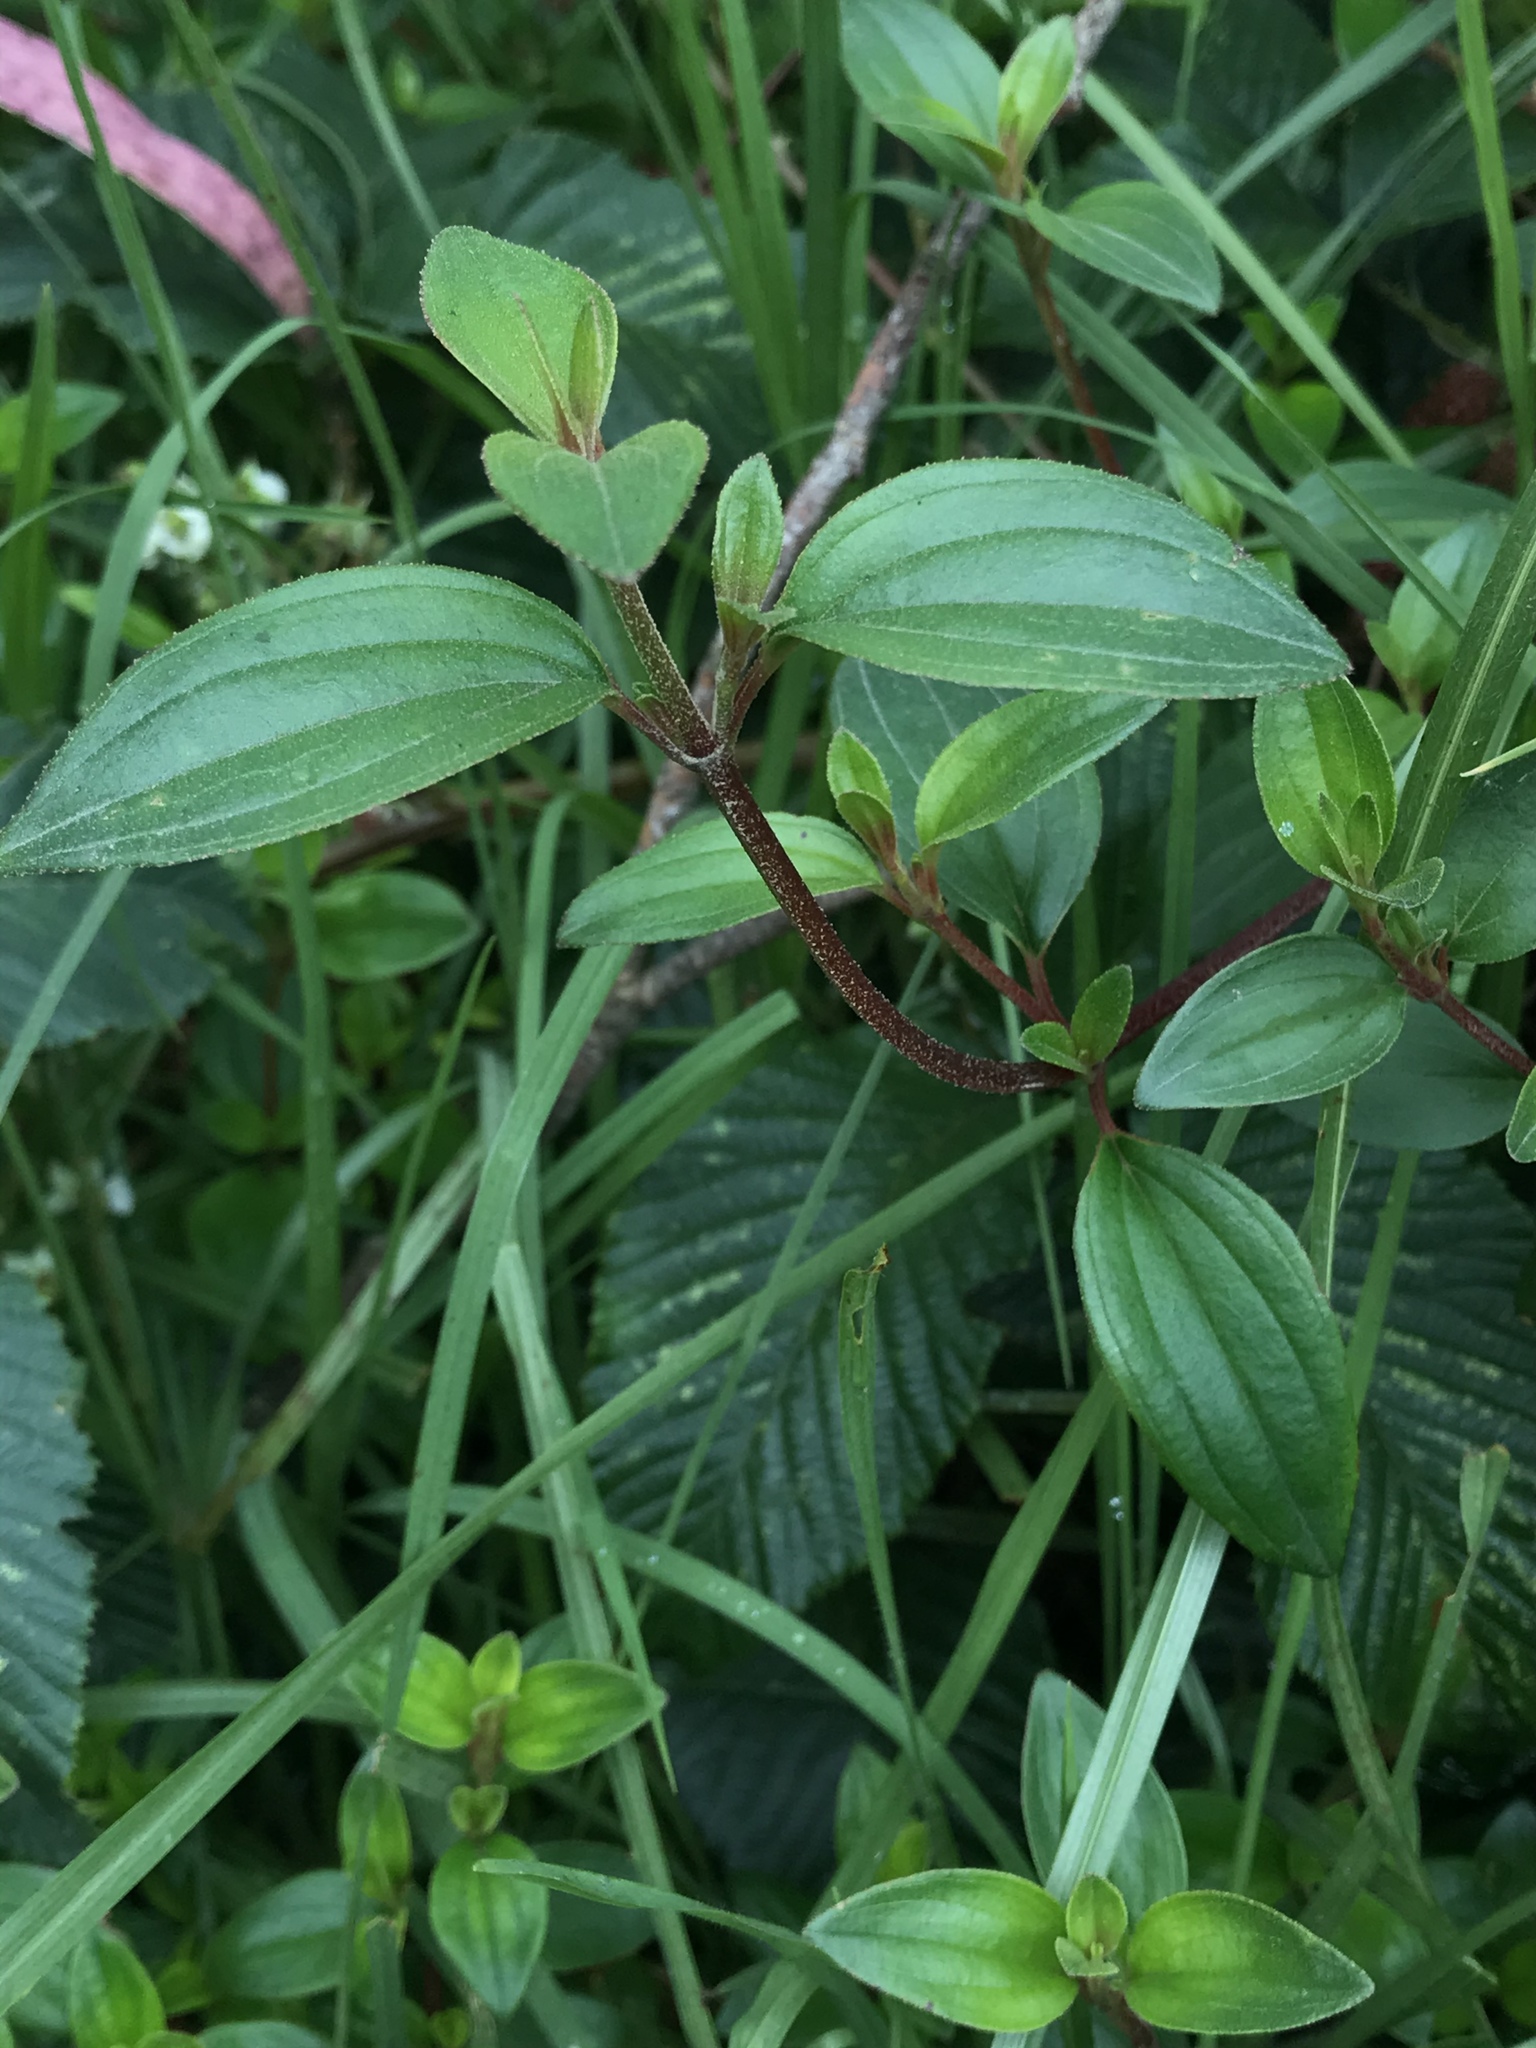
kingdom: Plantae
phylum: Tracheophyta
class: Magnoliopsida
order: Myrtales
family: Melastomataceae
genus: Monochaetum
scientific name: Monochaetum myrtoideum
